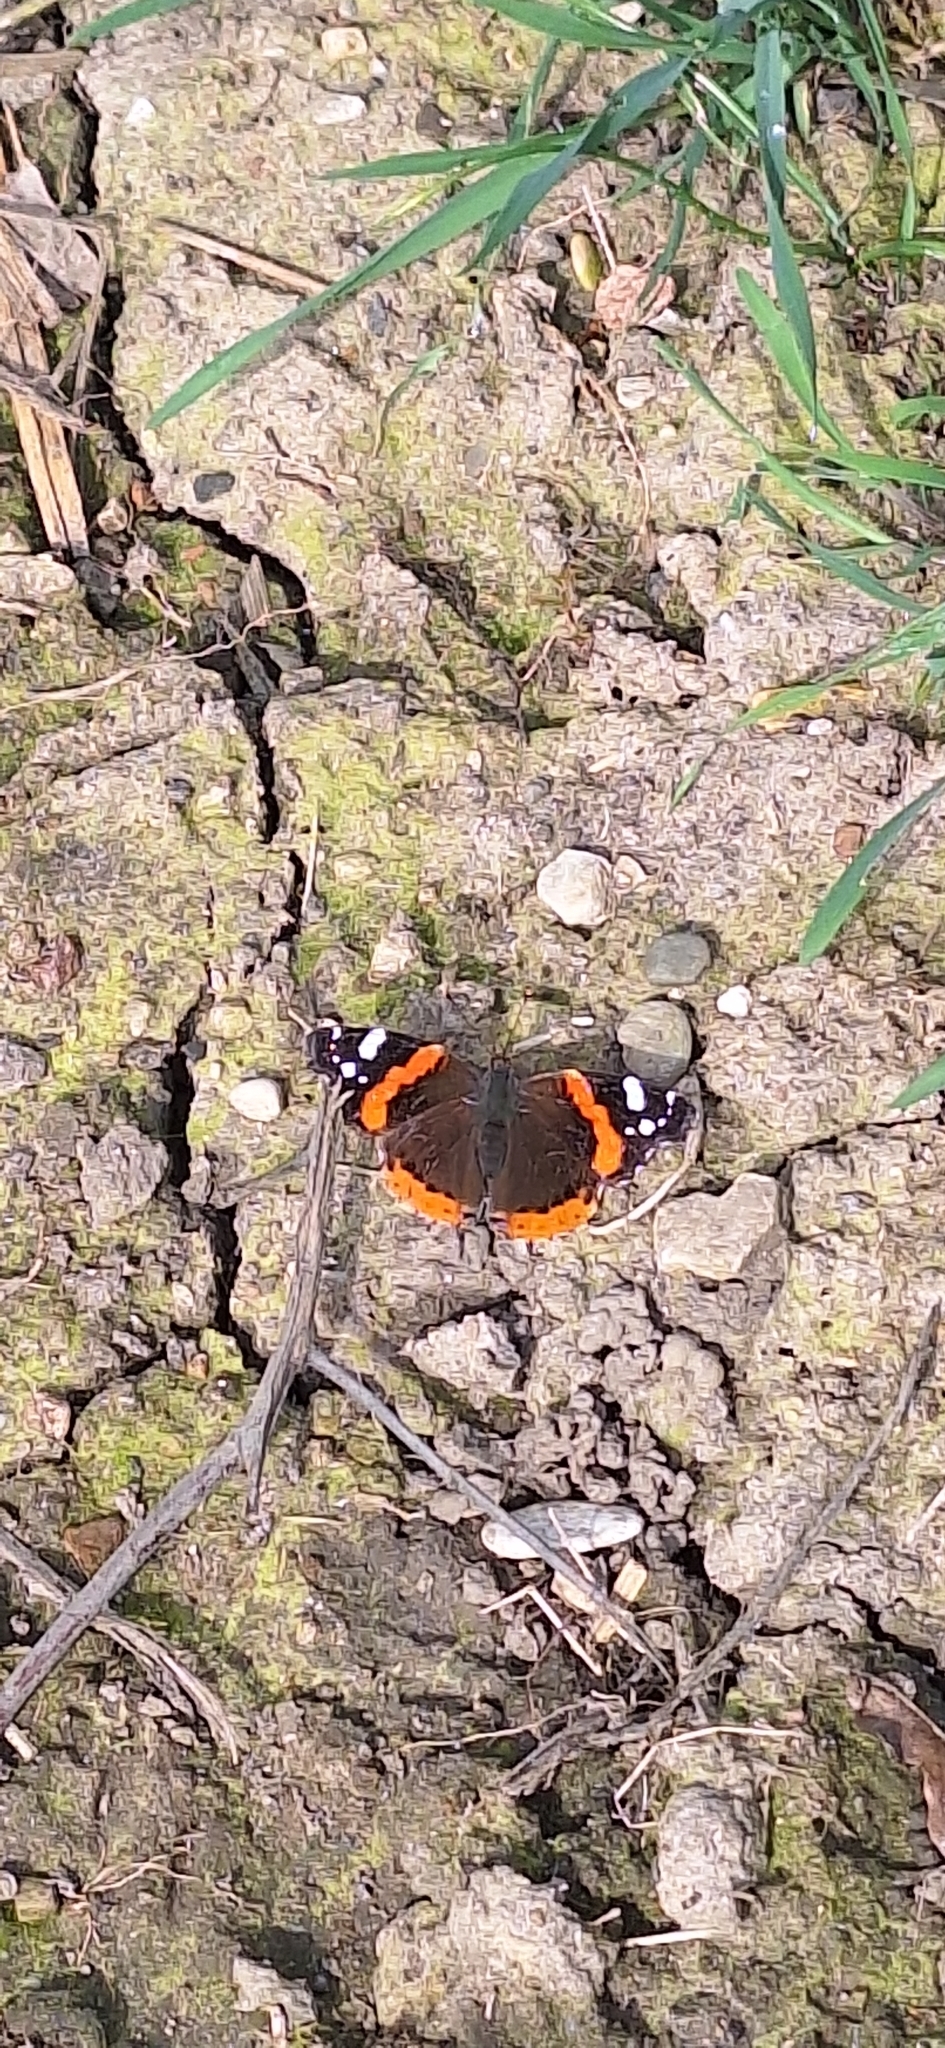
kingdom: Animalia
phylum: Arthropoda
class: Insecta
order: Lepidoptera
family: Nymphalidae
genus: Vanessa
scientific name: Vanessa atalanta
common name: Red admiral
